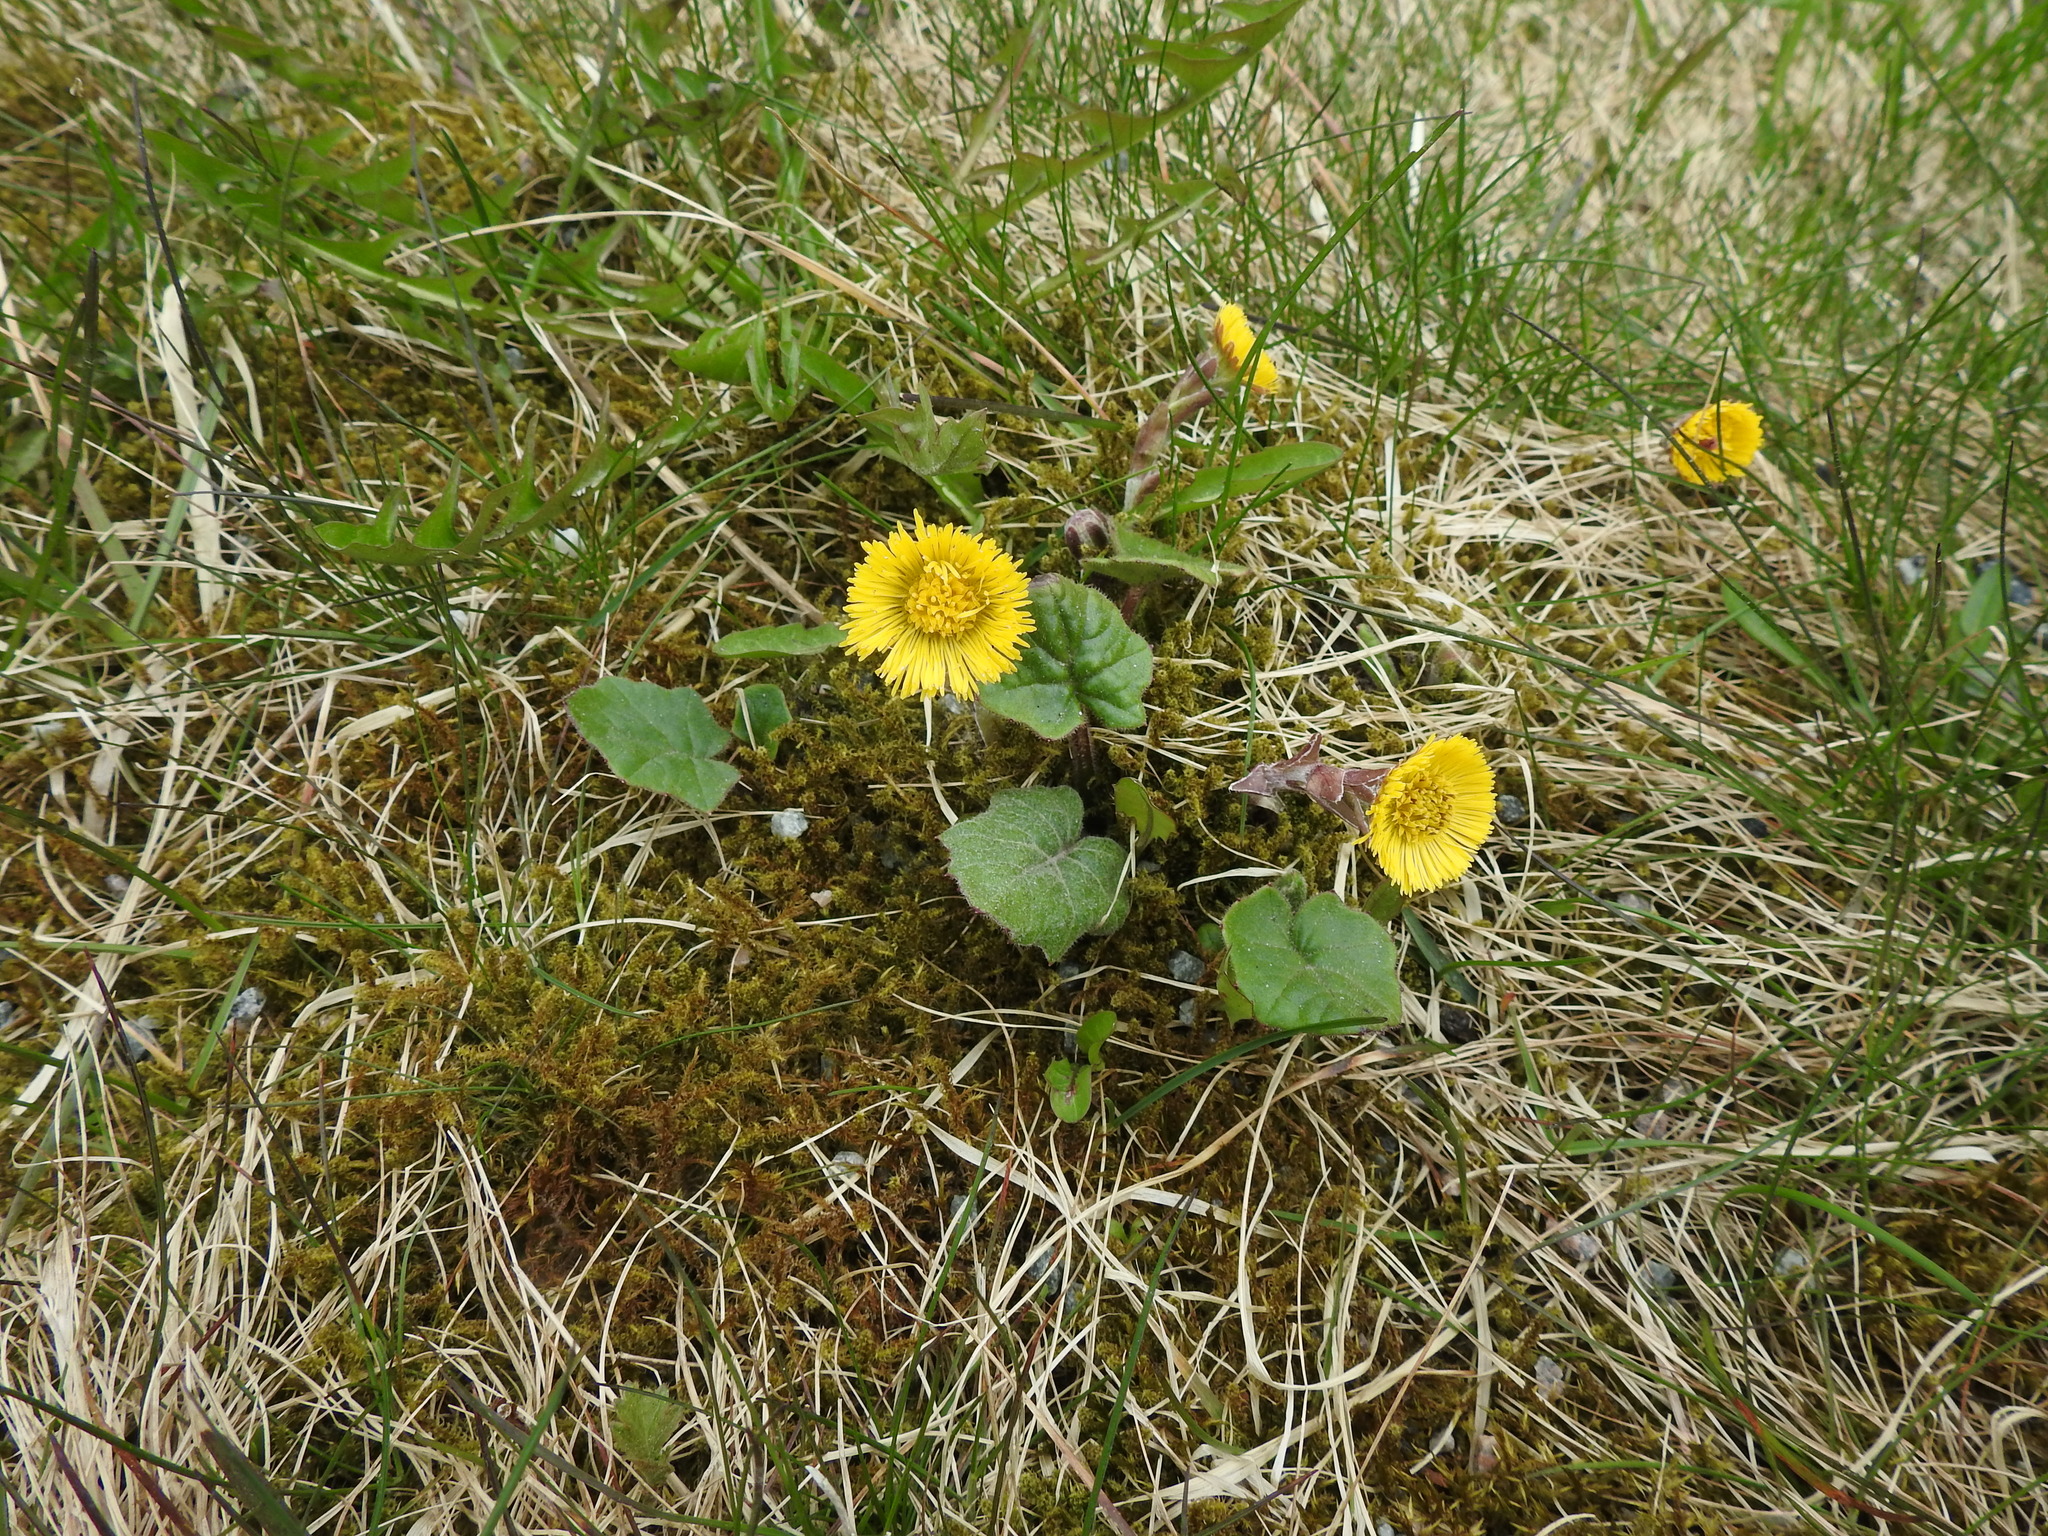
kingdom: Plantae
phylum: Tracheophyta
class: Magnoliopsida
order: Asterales
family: Asteraceae
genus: Tussilago
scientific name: Tussilago farfara
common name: Coltsfoot
